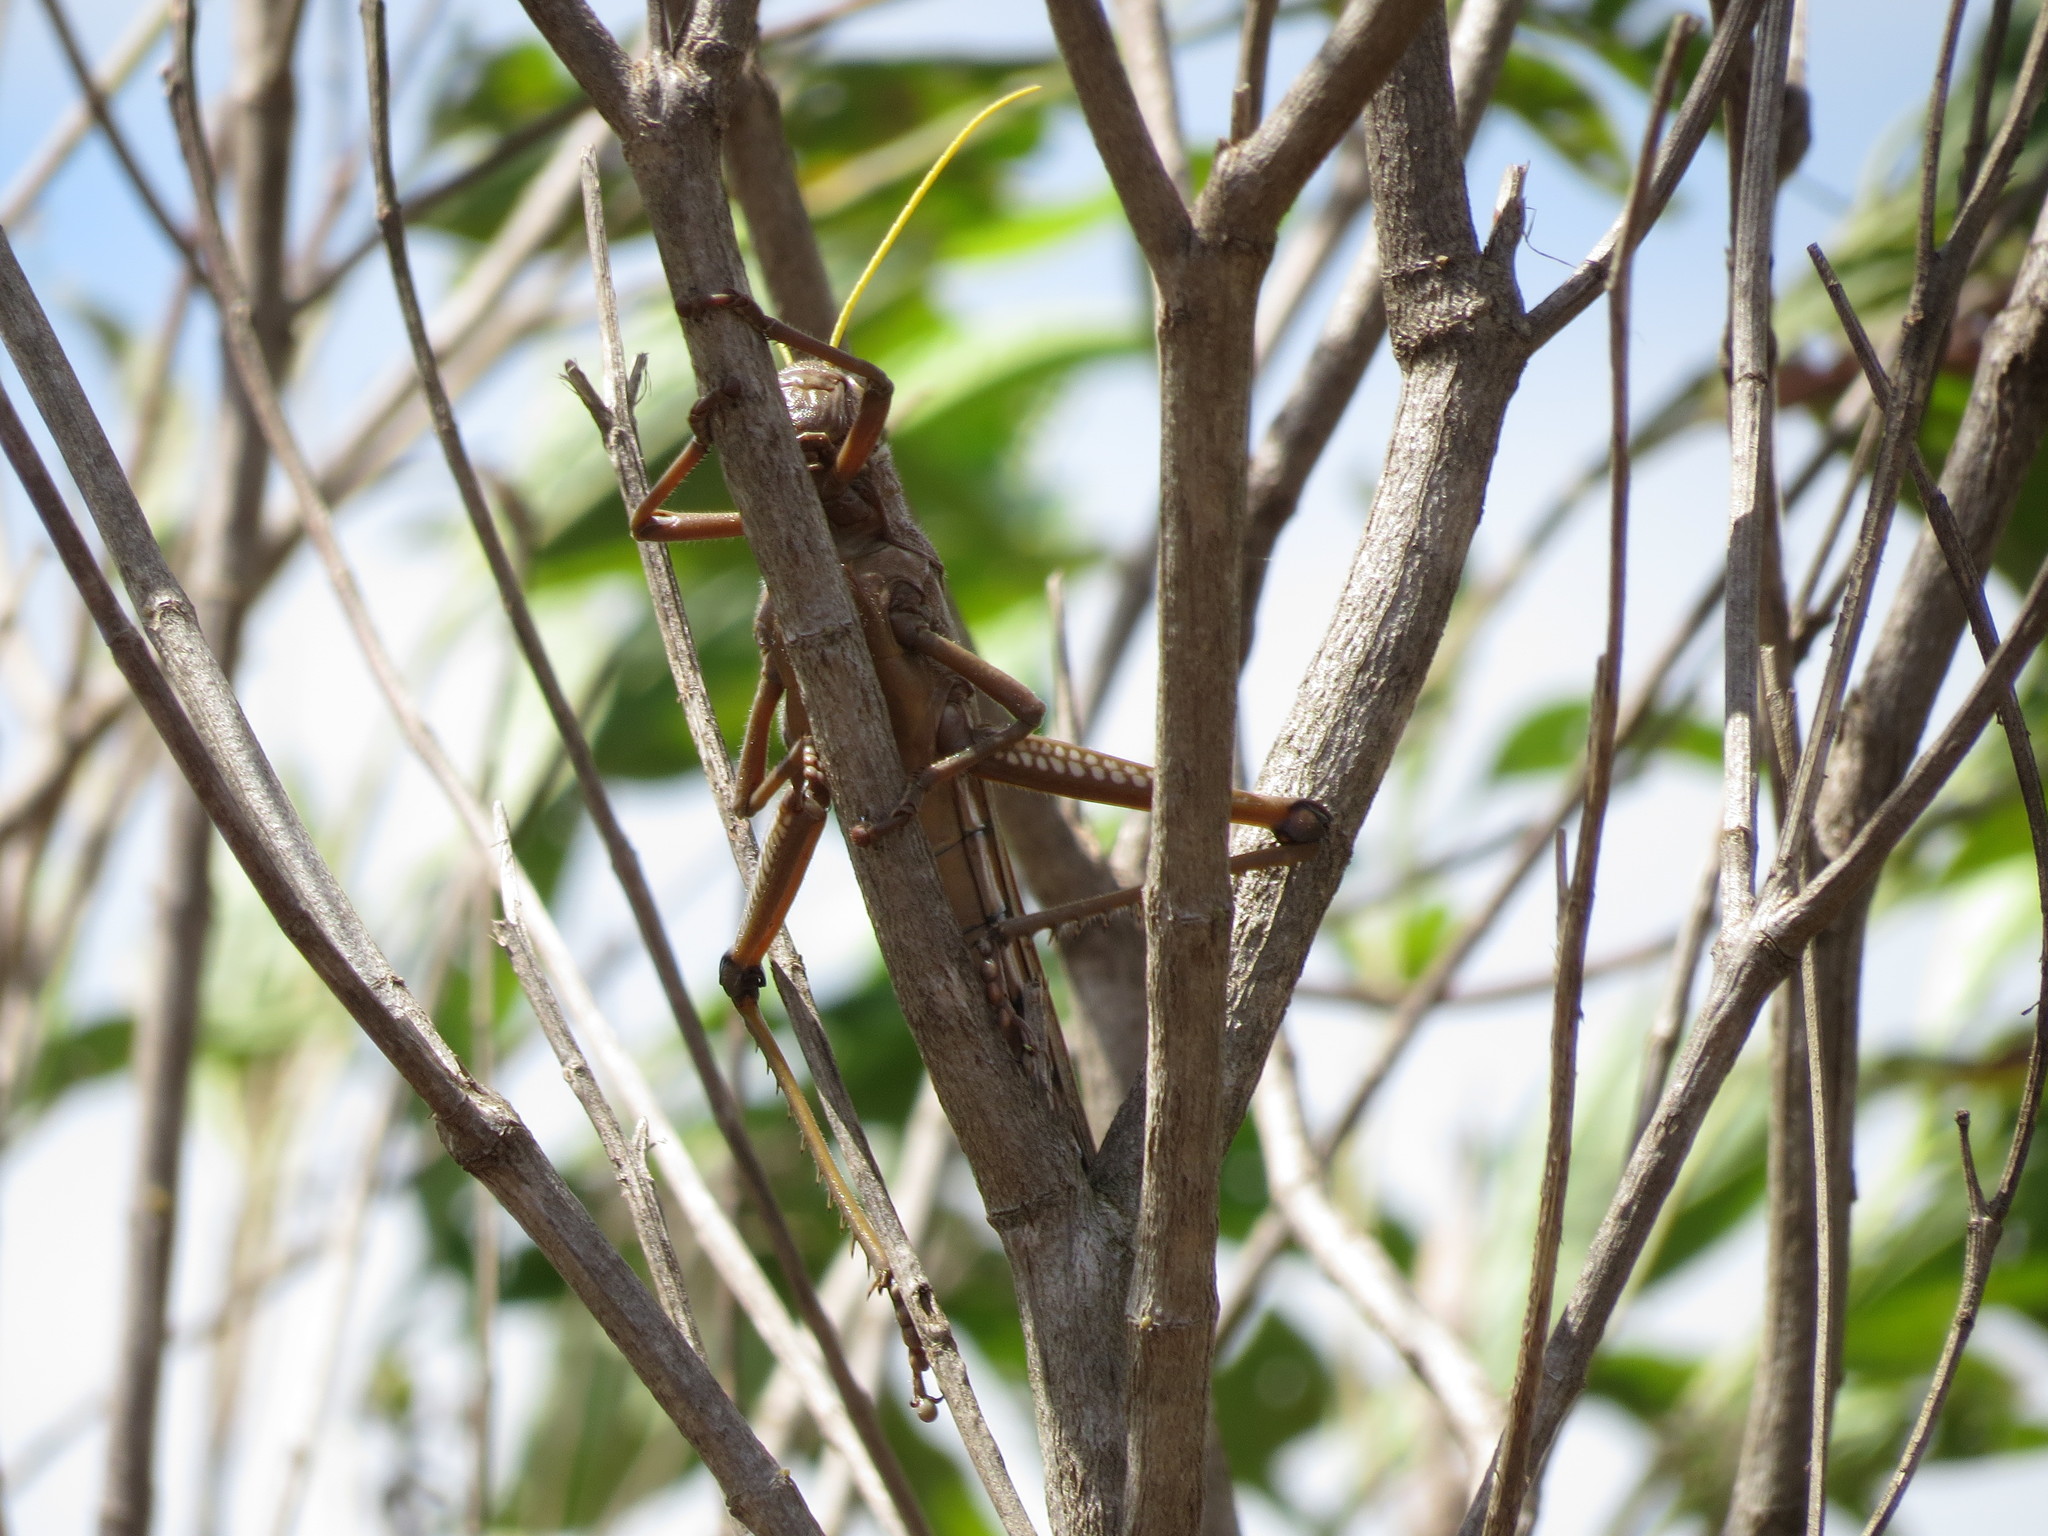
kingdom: Animalia
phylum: Arthropoda
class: Insecta
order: Orthoptera
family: Romaleidae
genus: Tropidacris
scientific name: Tropidacris collaris
